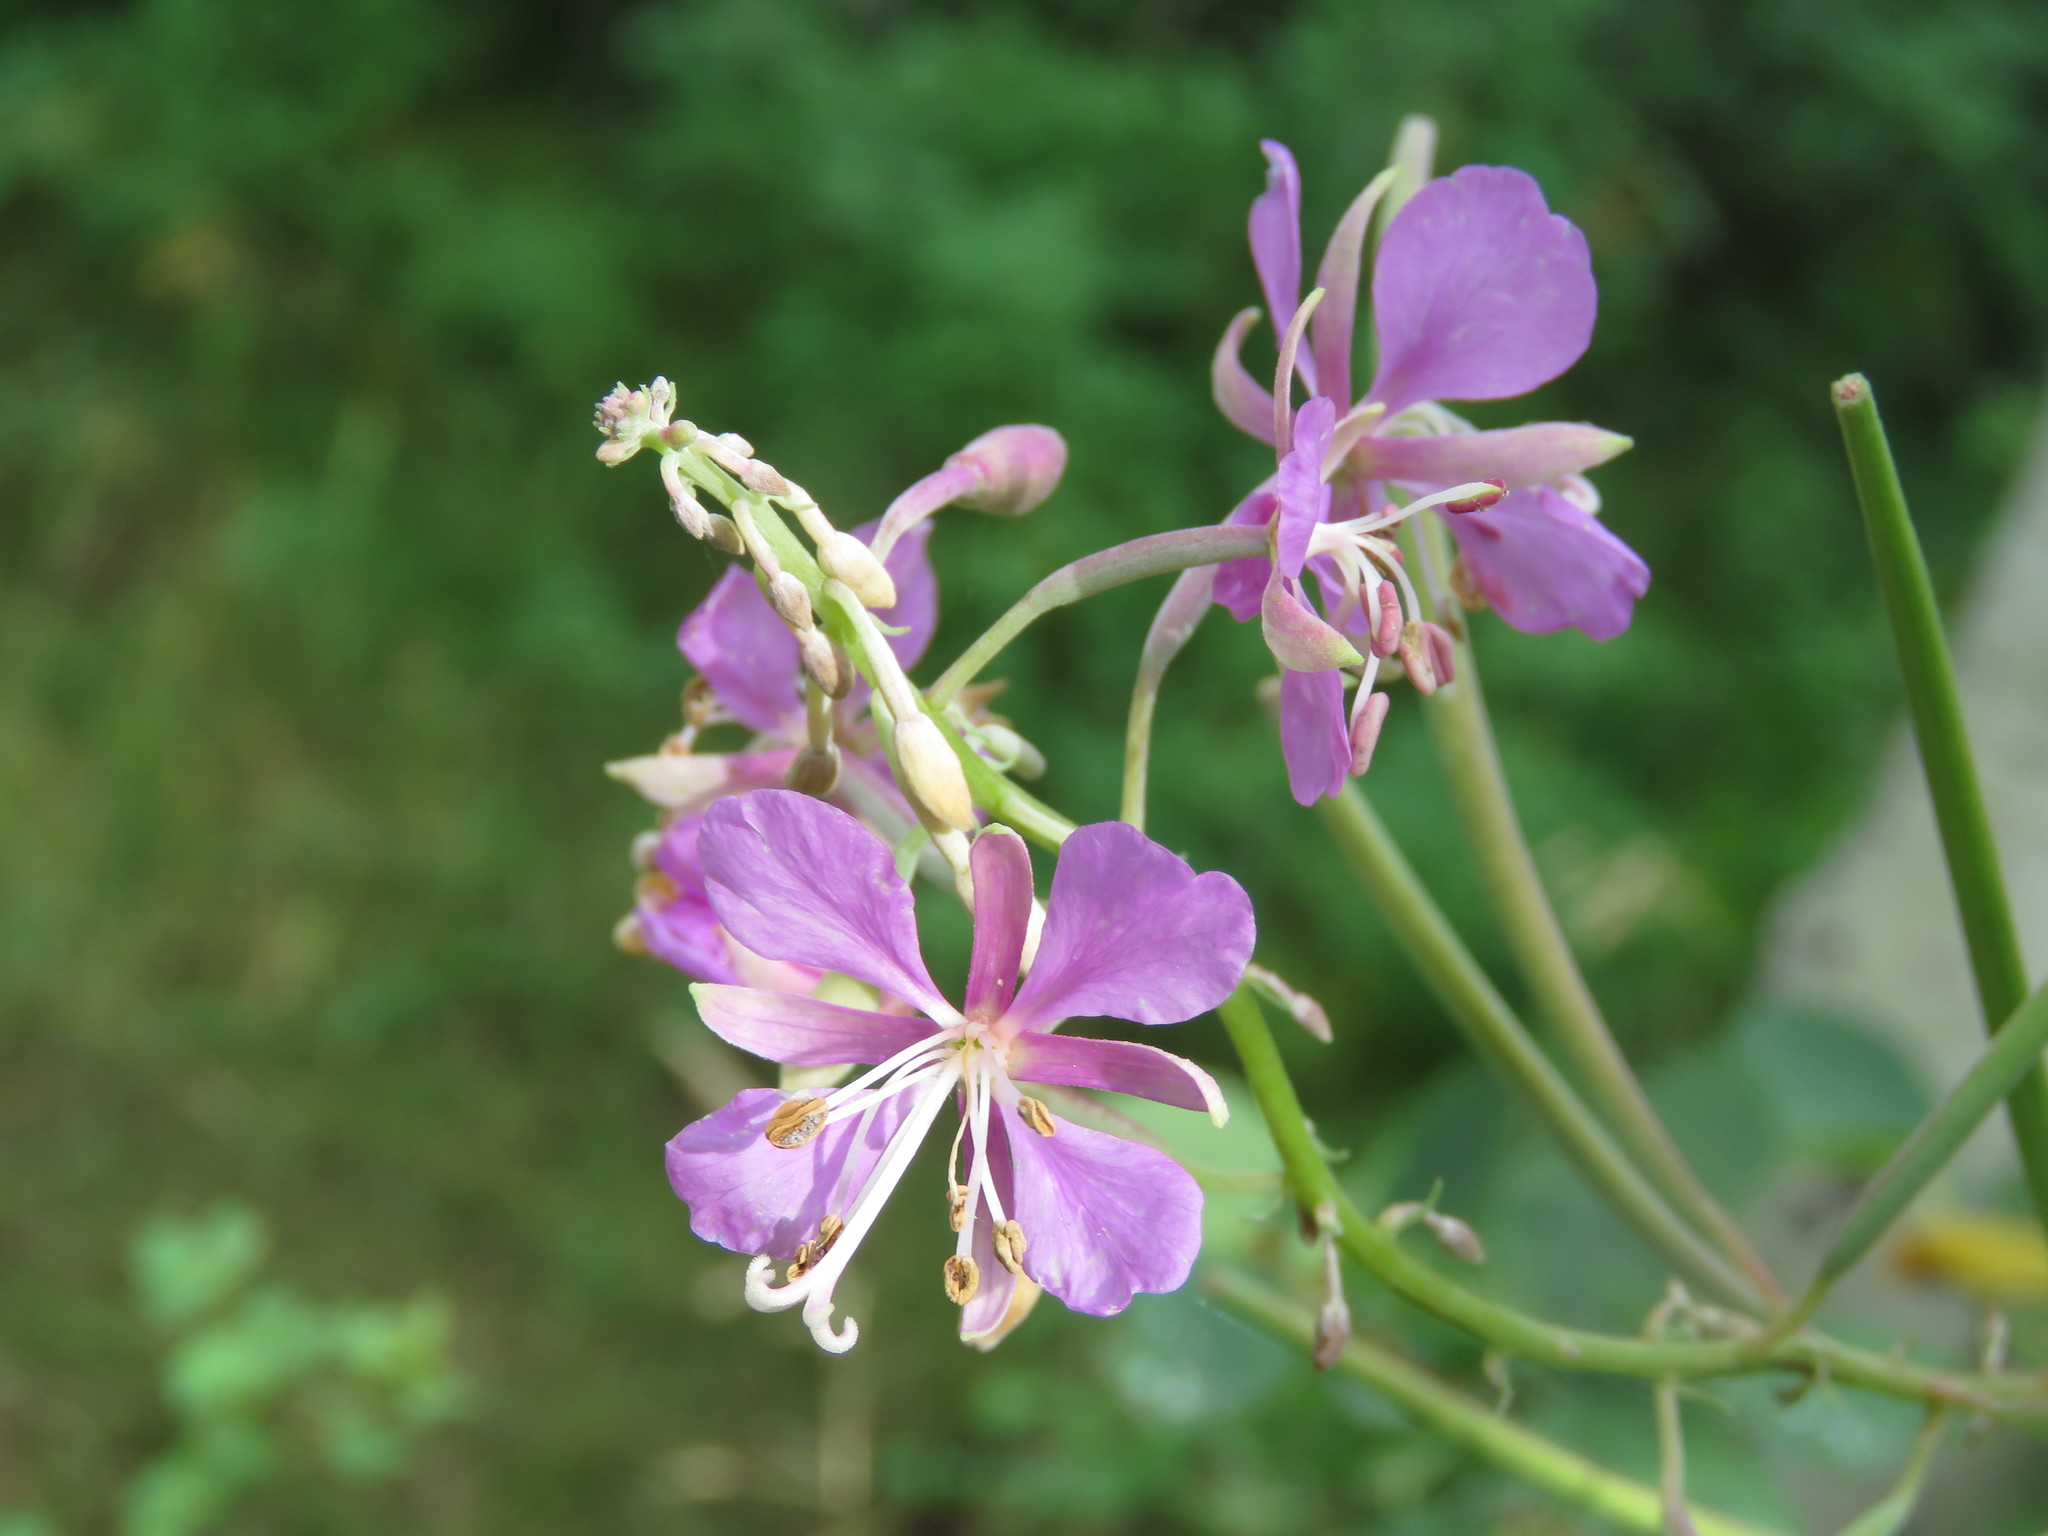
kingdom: Plantae
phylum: Tracheophyta
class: Magnoliopsida
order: Myrtales
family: Onagraceae
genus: Chamaenerion
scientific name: Chamaenerion angustifolium
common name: Fireweed
